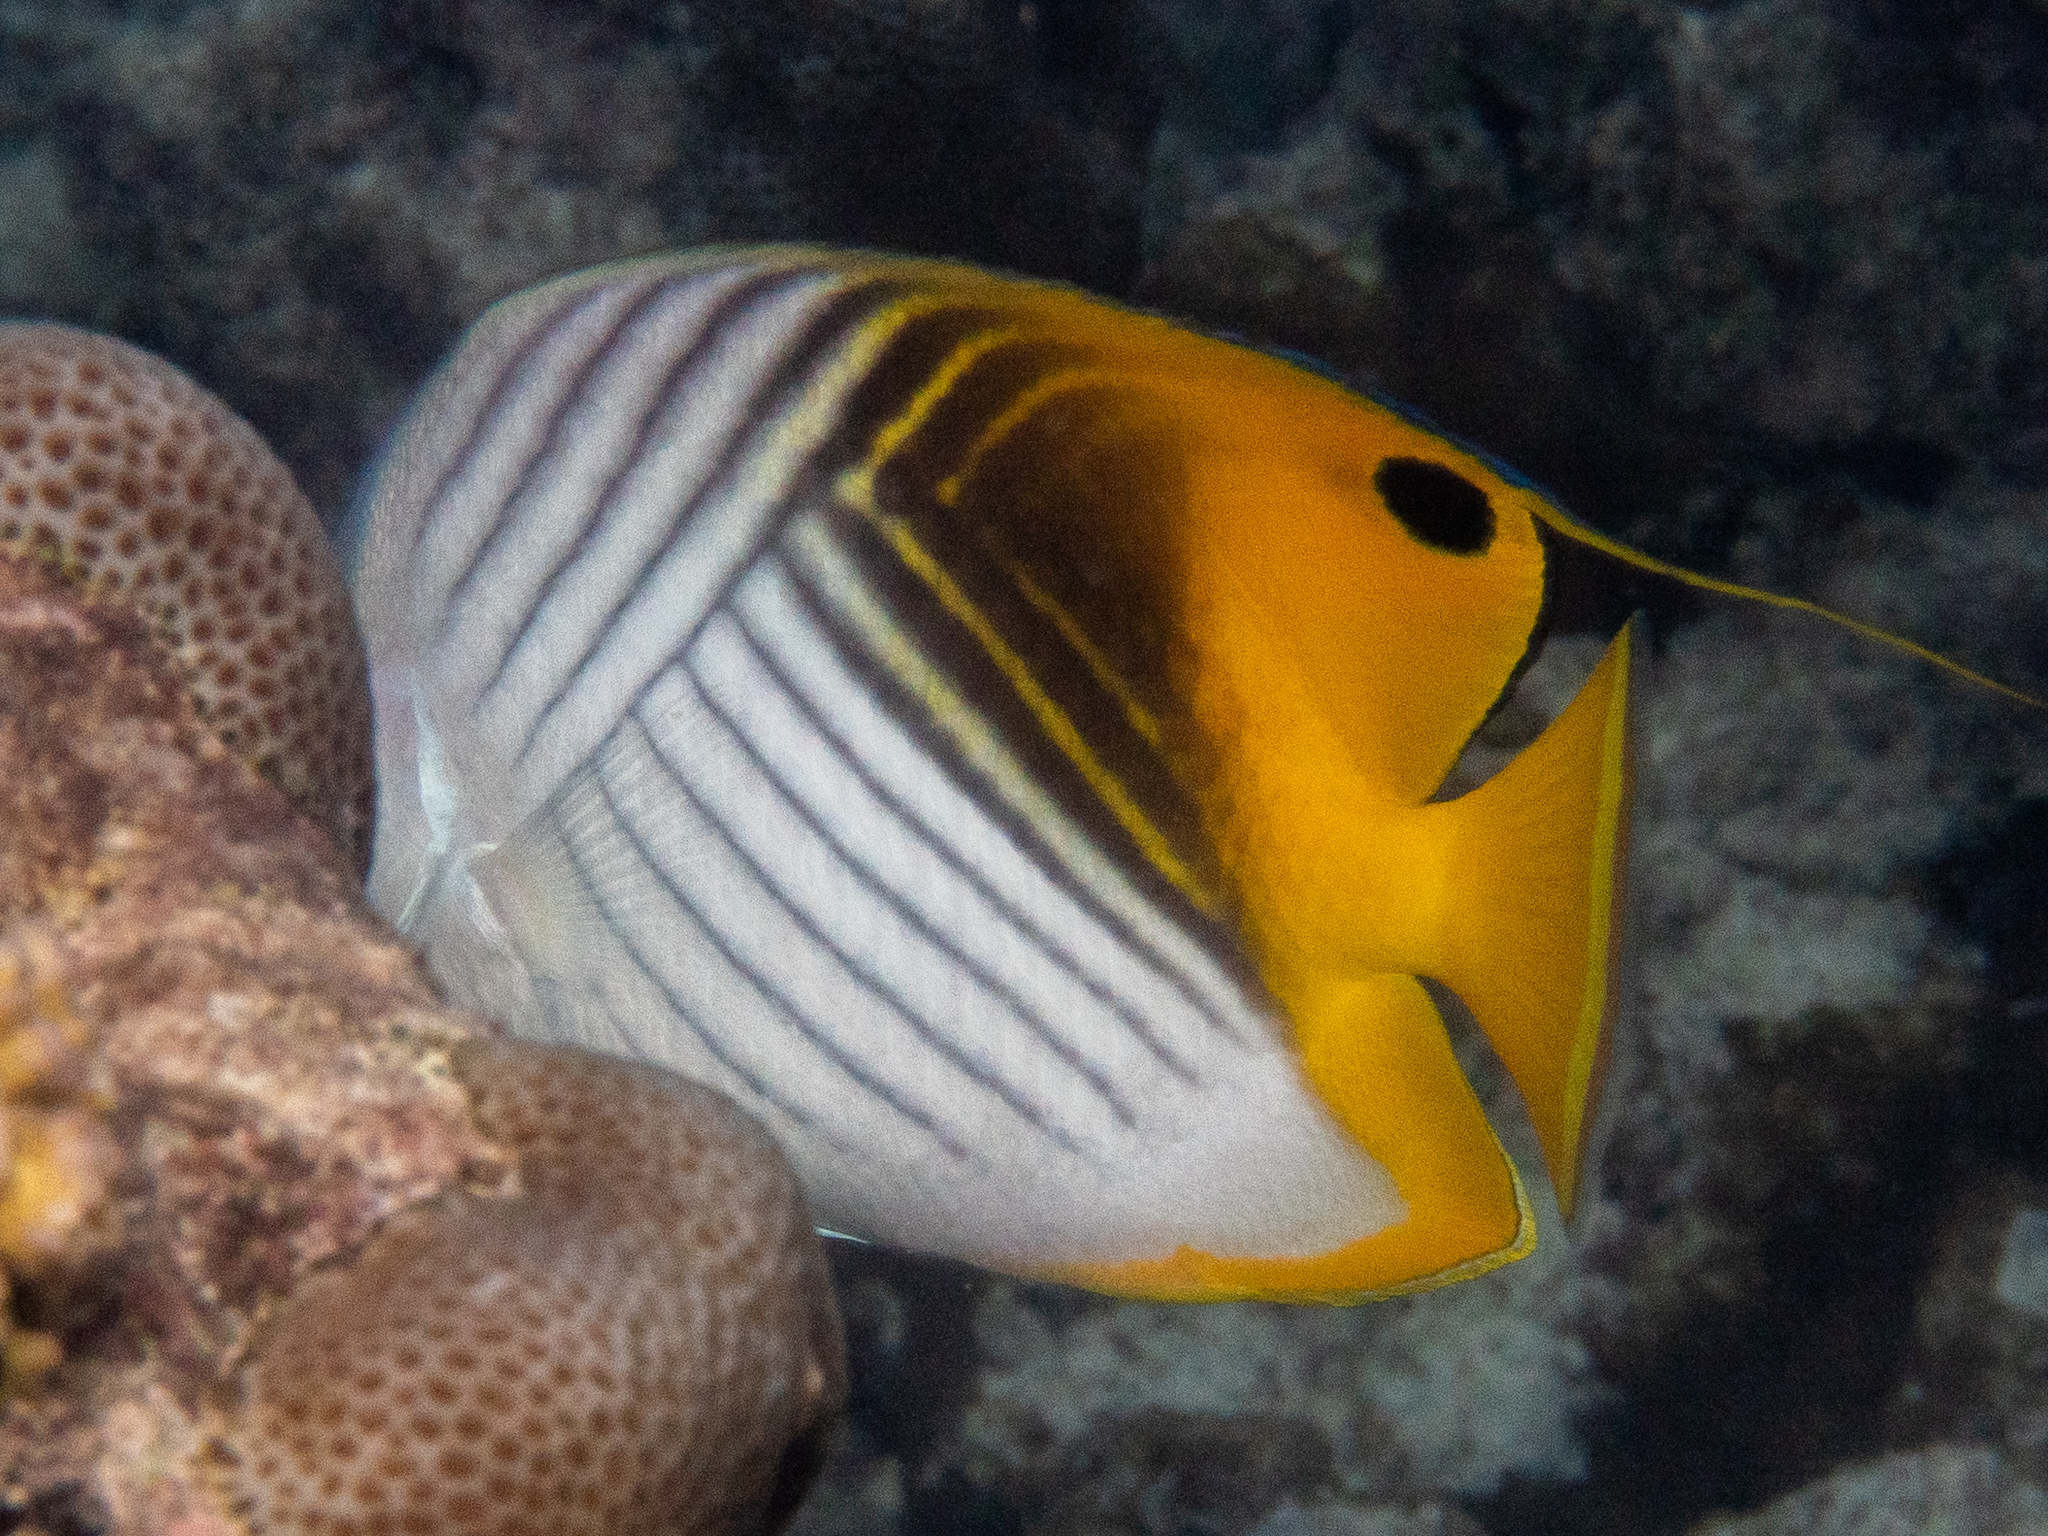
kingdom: Animalia
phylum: Chordata
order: Perciformes
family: Chaetodontidae
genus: Chaetodon
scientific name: Chaetodon auriga
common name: Threadfin butterflyfish
